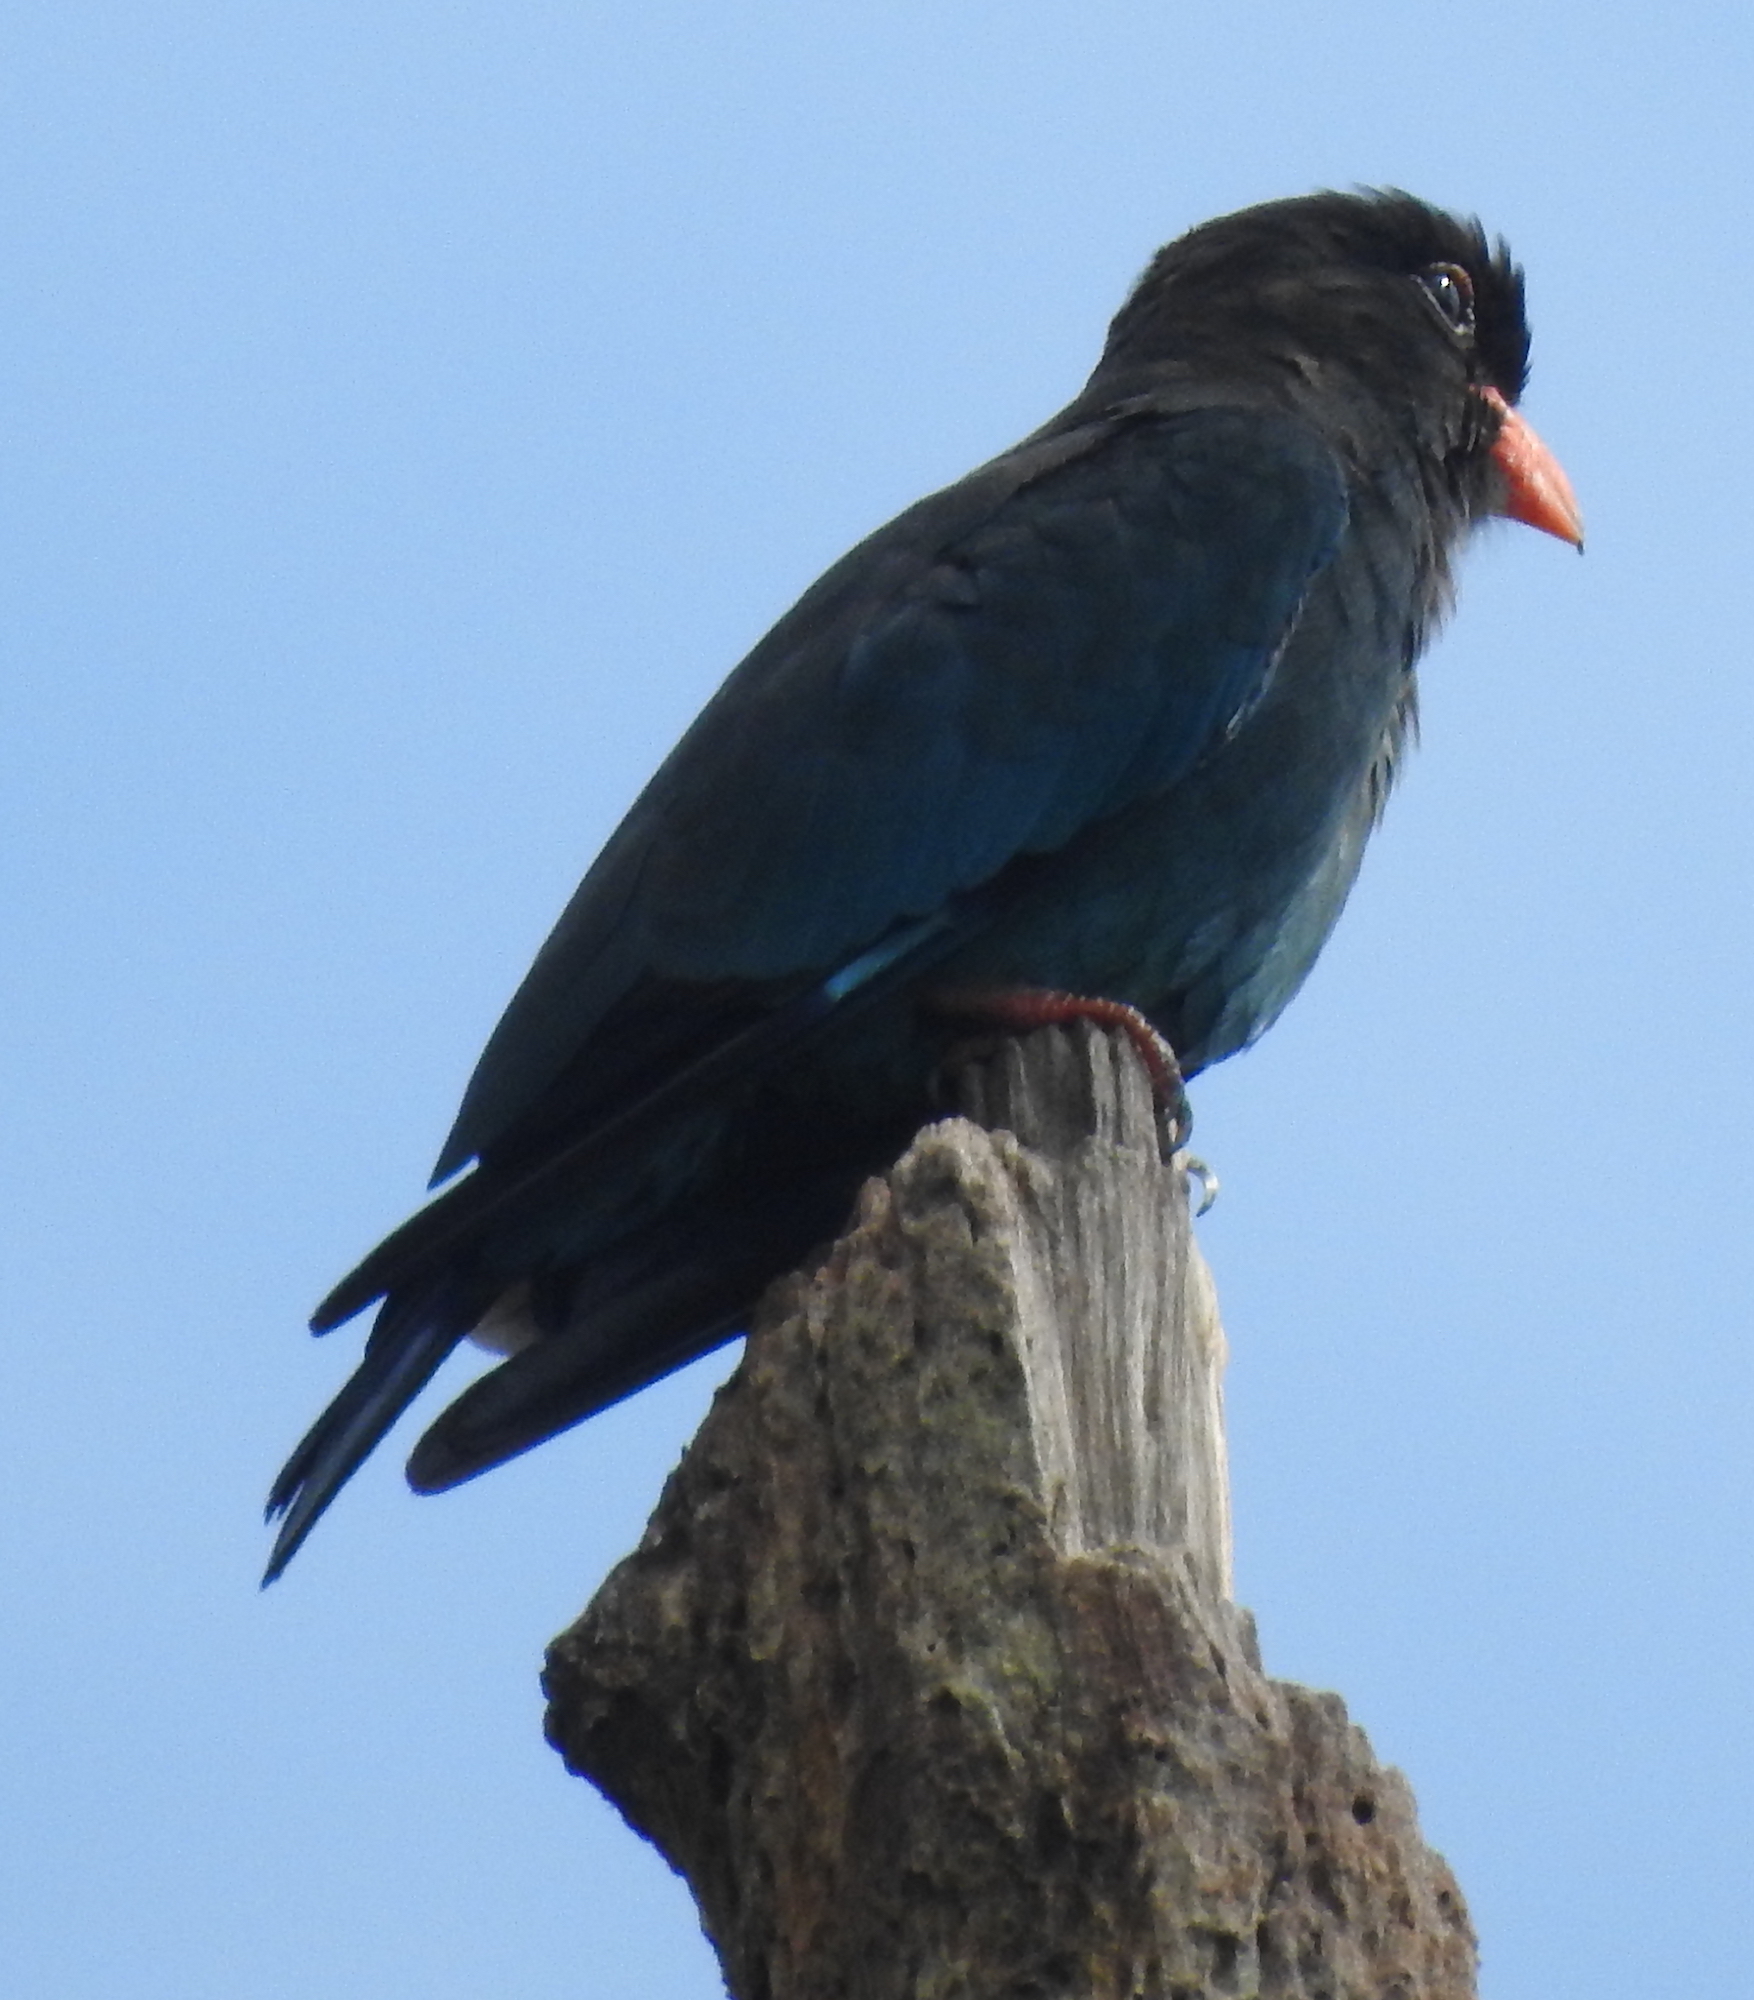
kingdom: Animalia
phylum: Chordata
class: Aves
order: Coraciiformes
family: Coraciidae
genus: Eurystomus
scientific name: Eurystomus orientalis
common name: Oriental dollarbird
